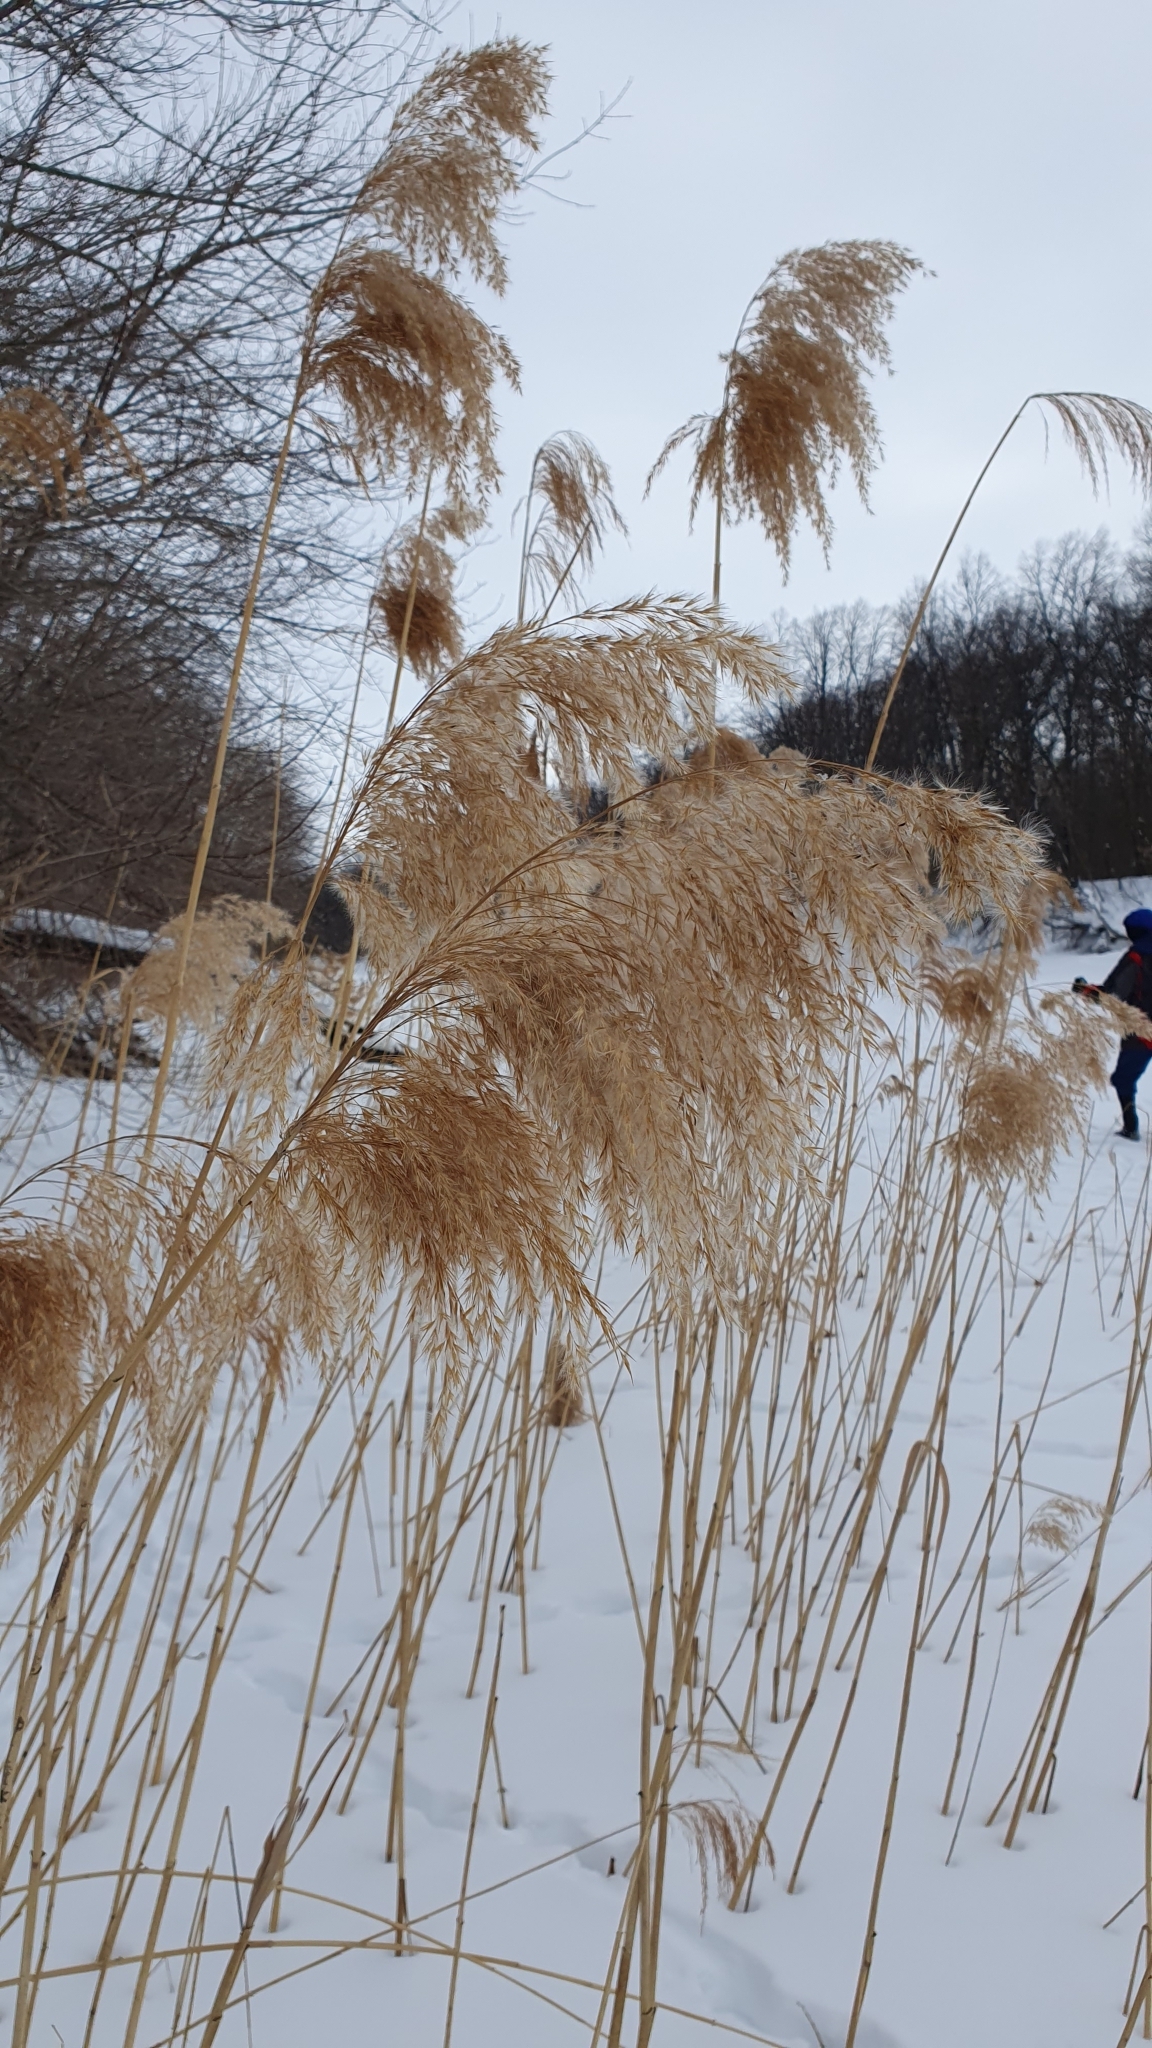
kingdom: Plantae
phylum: Tracheophyta
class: Liliopsida
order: Poales
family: Poaceae
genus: Phragmites
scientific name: Phragmites australis
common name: Common reed
